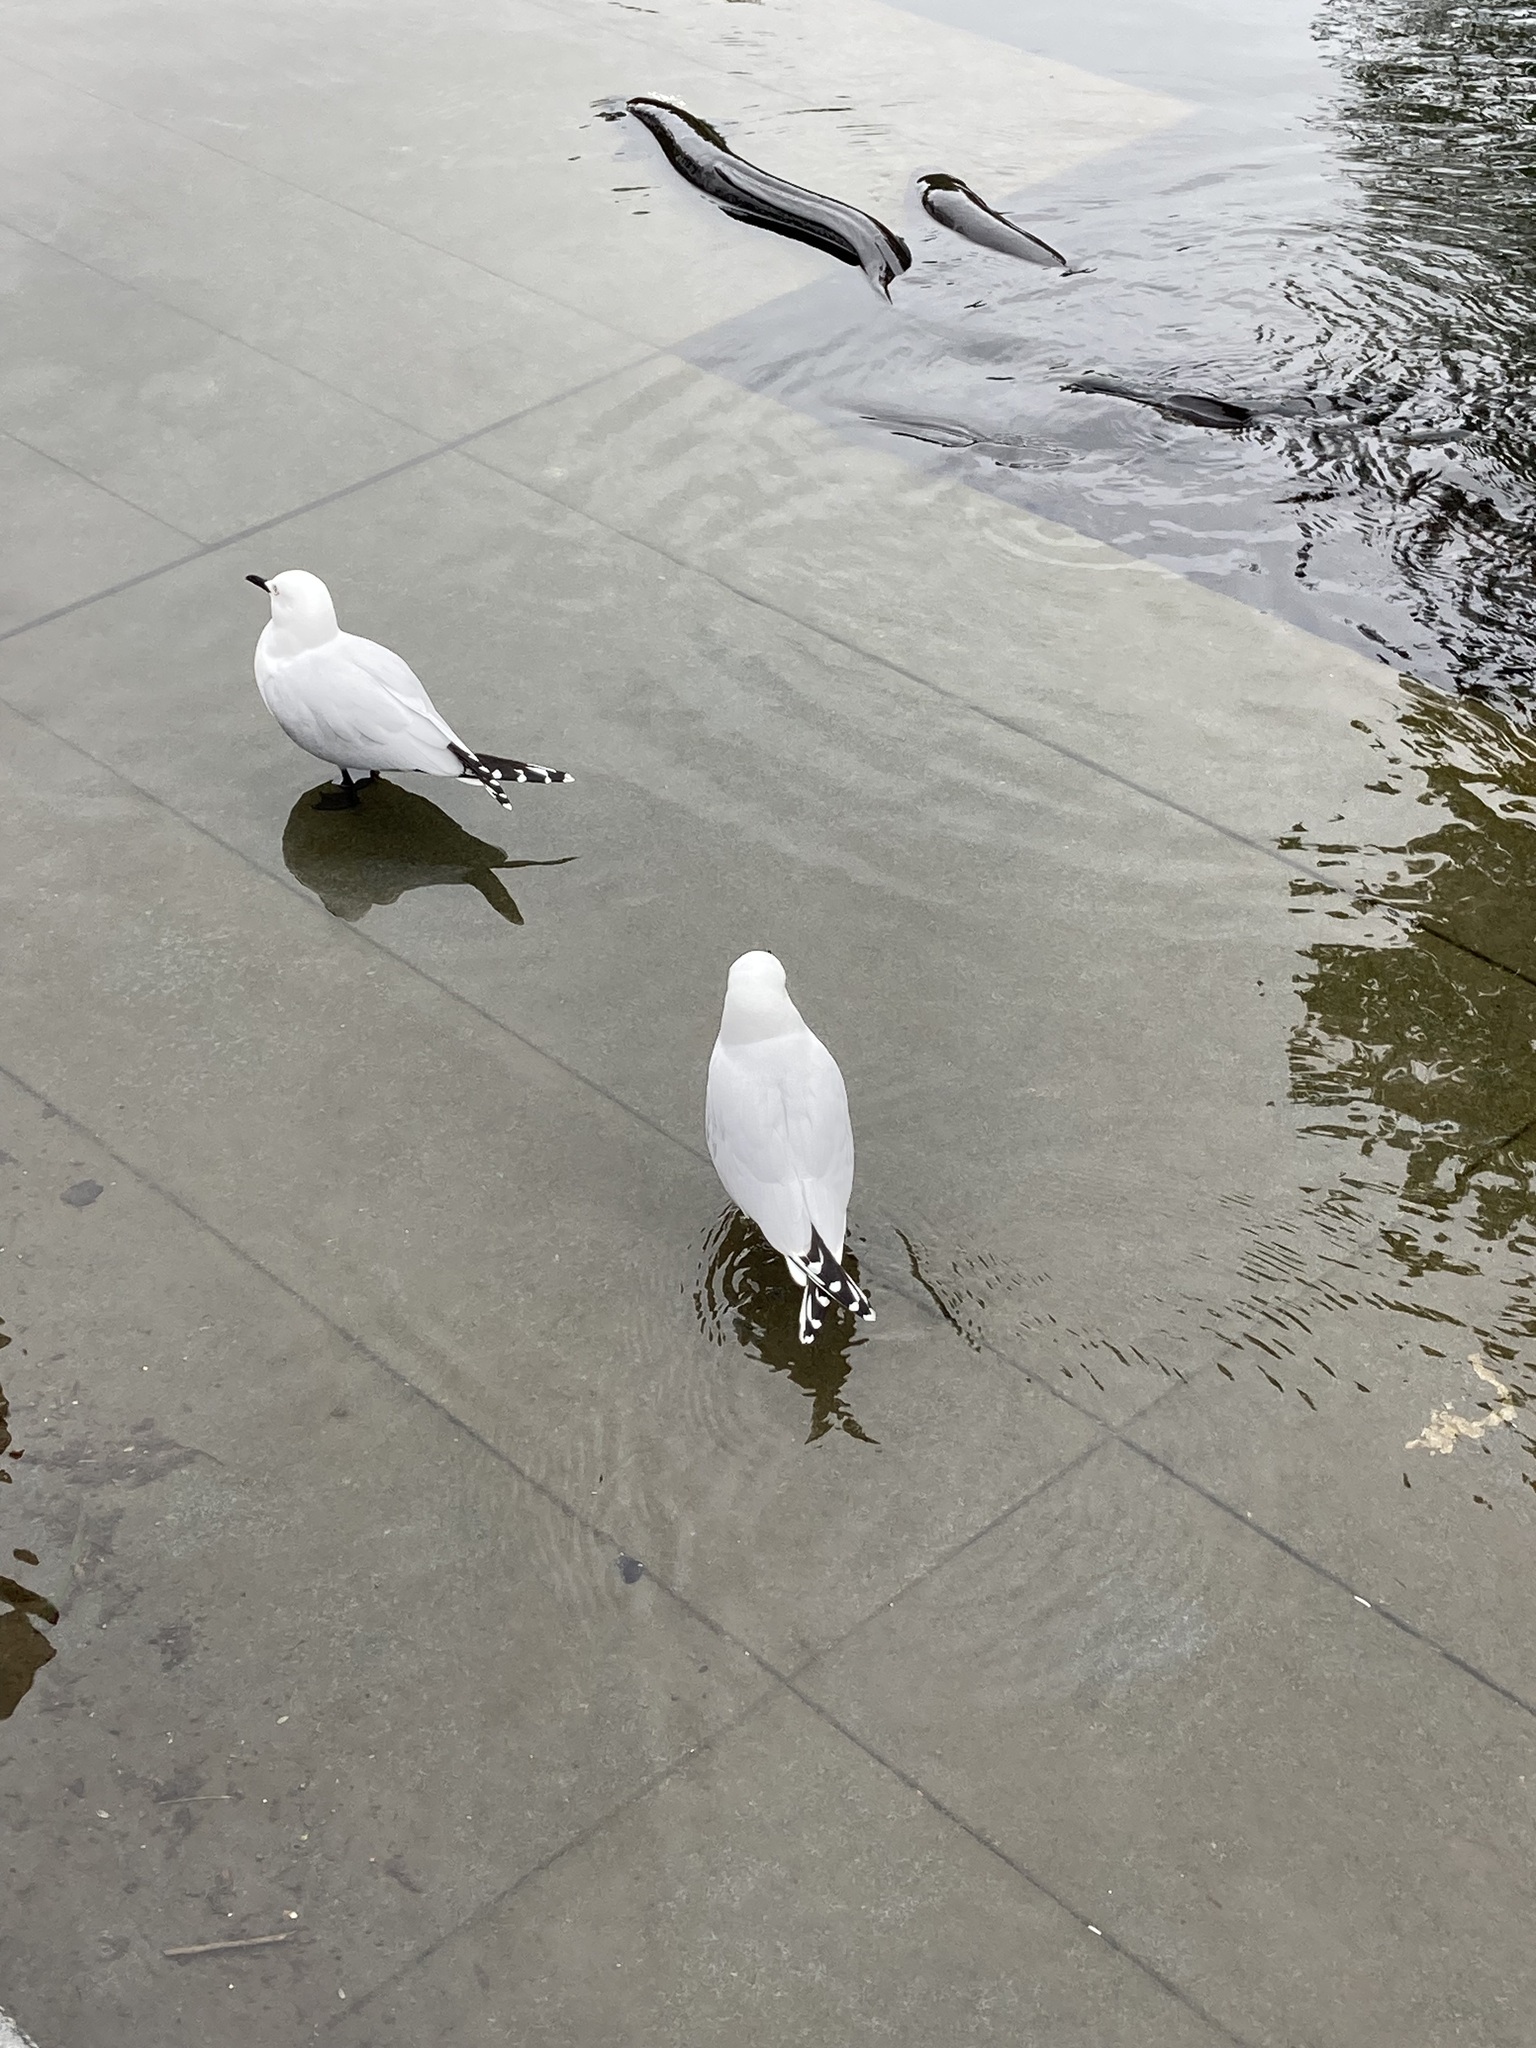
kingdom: Animalia
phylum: Chordata
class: Aves
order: Charadriiformes
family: Laridae
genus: Chroicocephalus
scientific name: Chroicocephalus bulleri
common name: Black-billed gull
